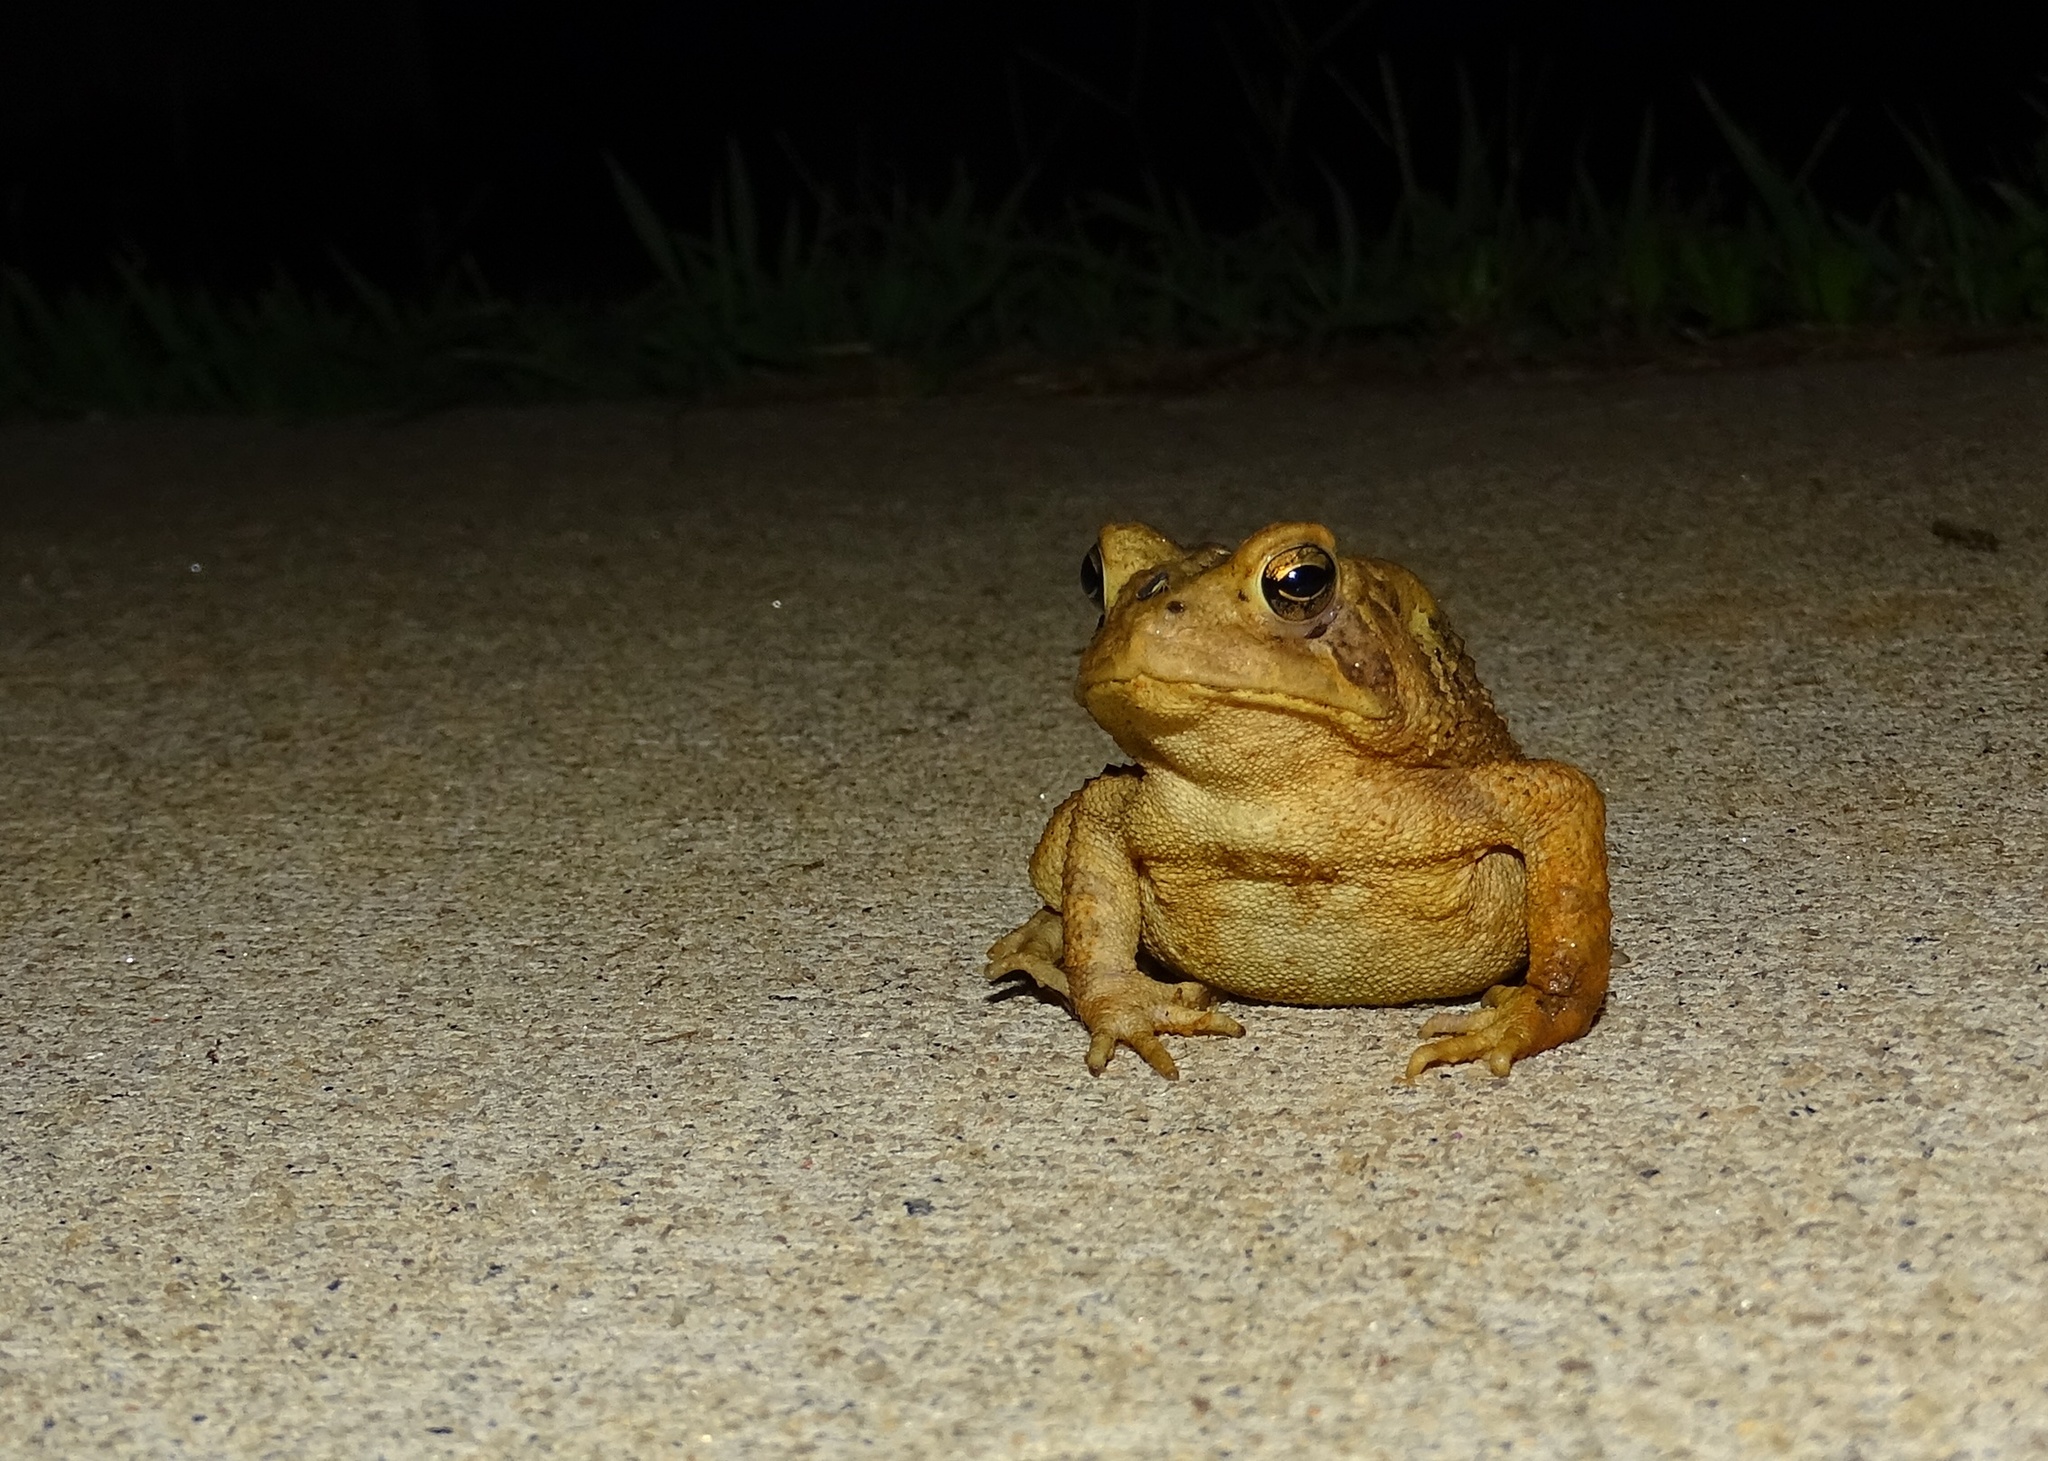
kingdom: Animalia
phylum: Chordata
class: Amphibia
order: Anura
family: Bufonidae
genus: Anaxyrus
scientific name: Anaxyrus americanus
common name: American toad
